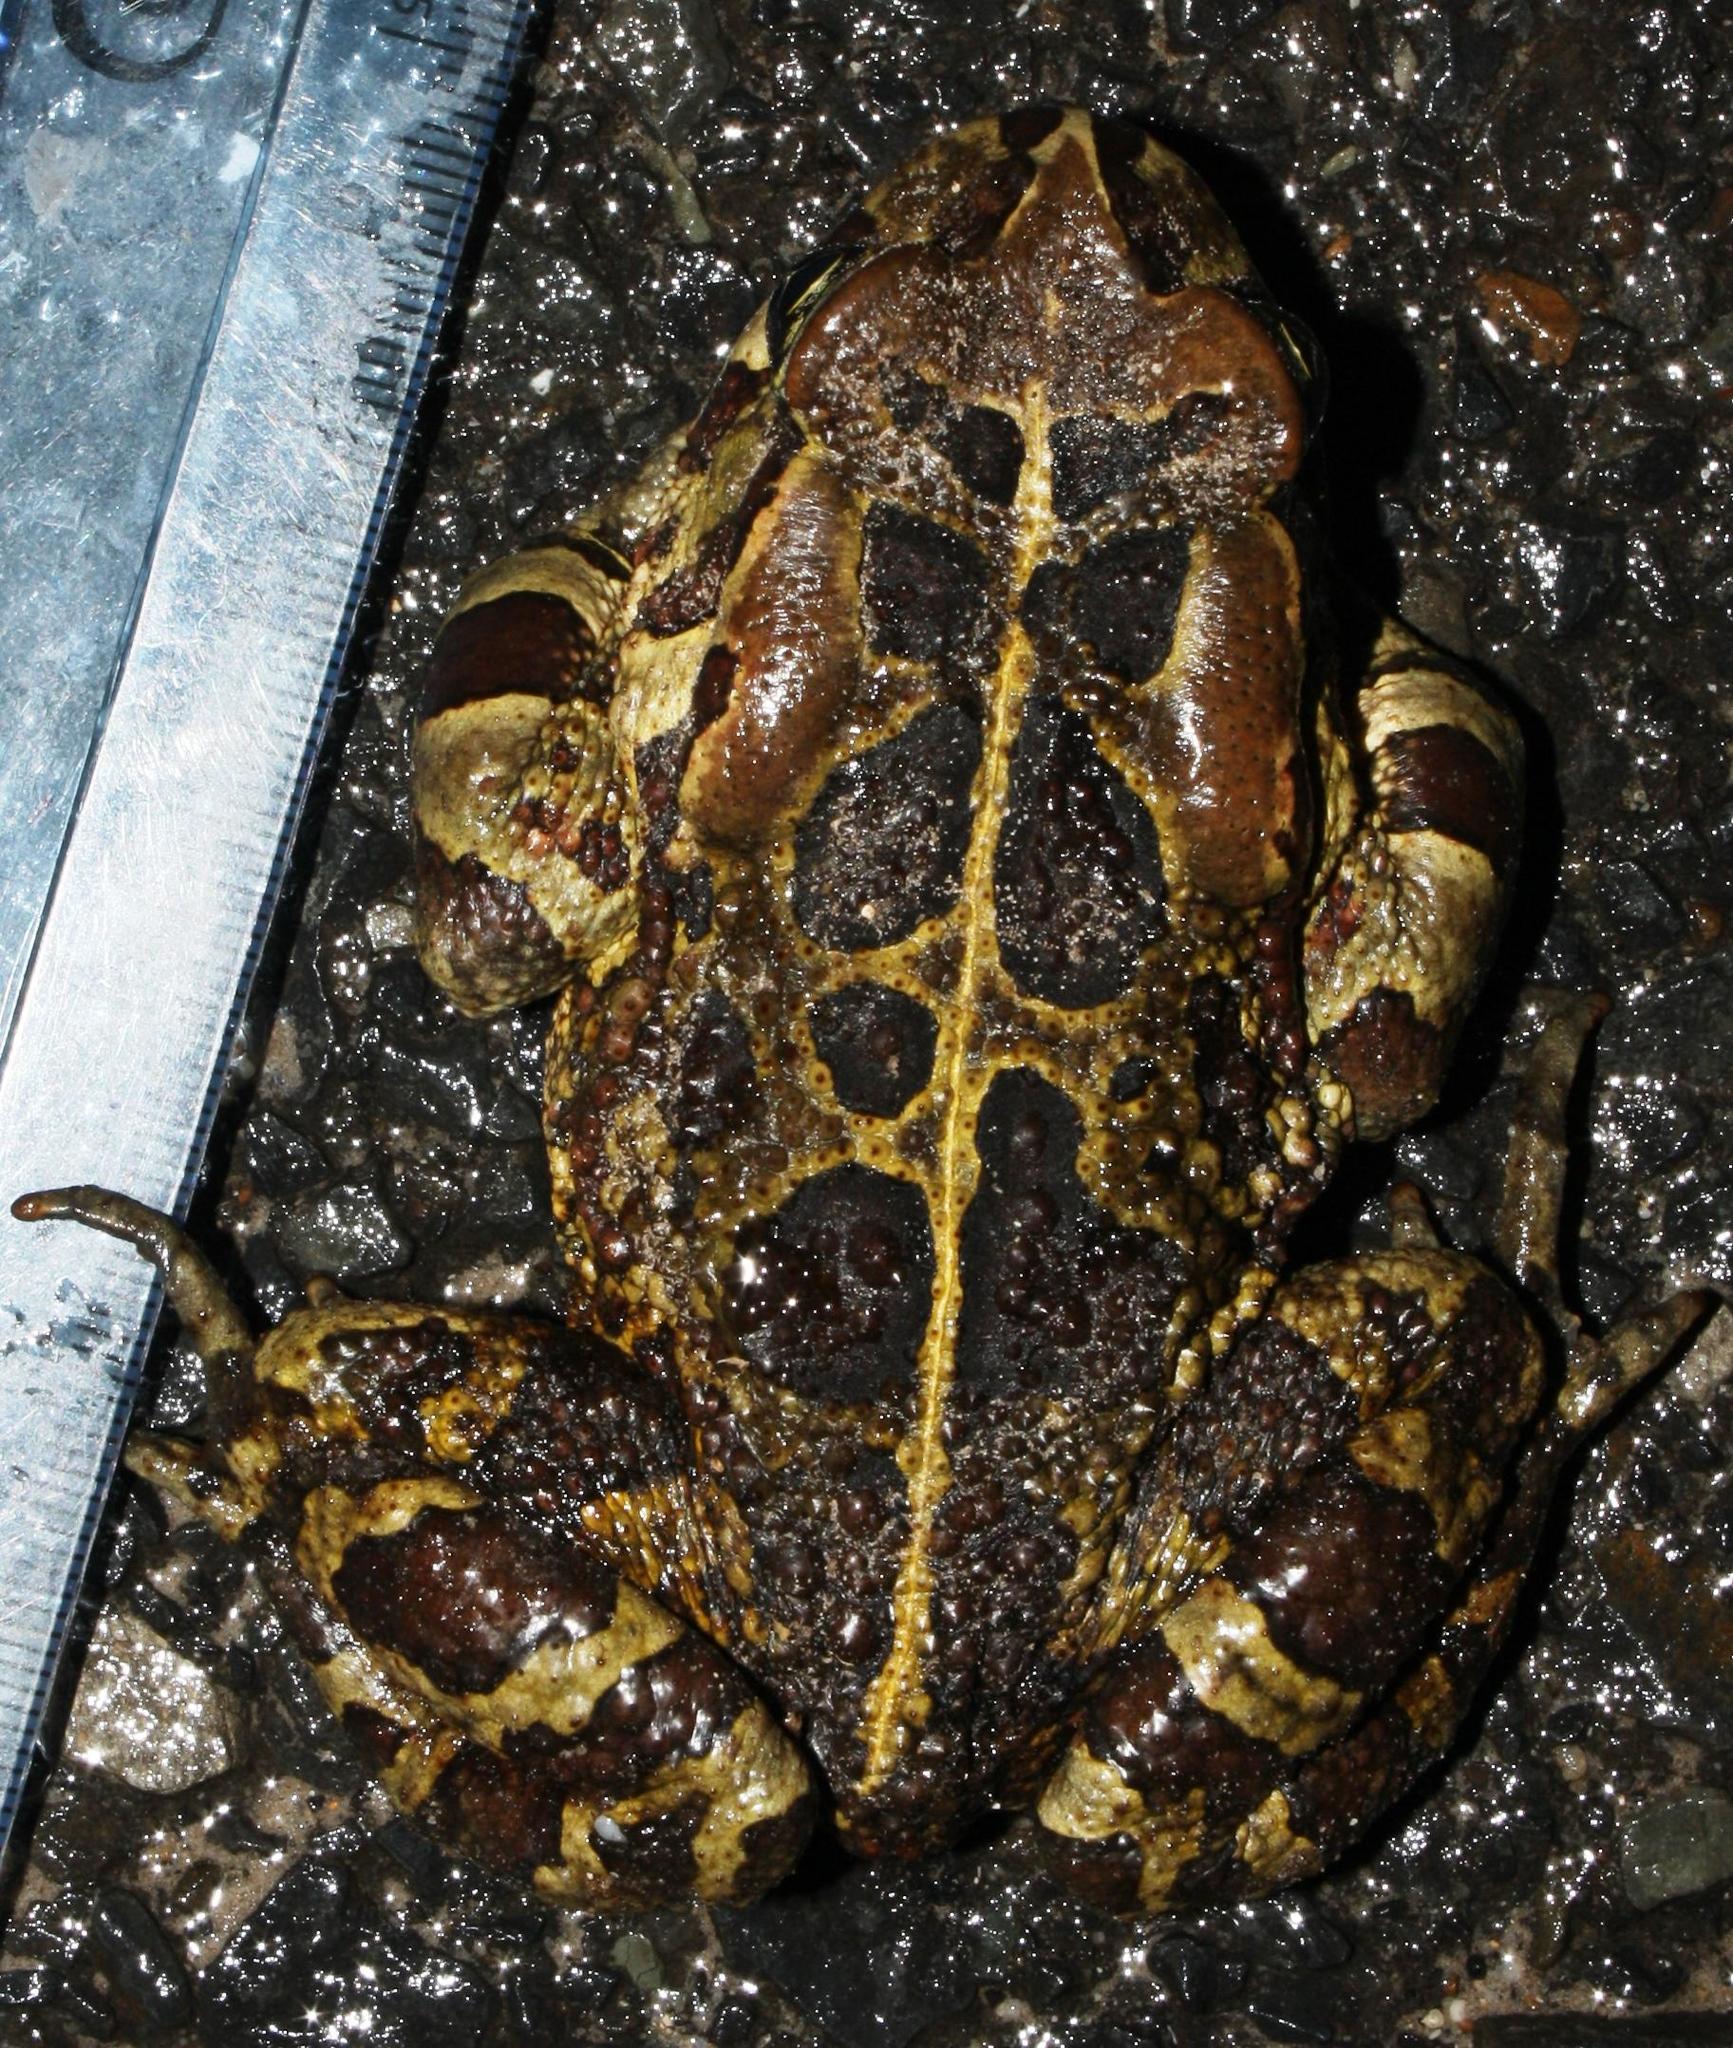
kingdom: Animalia
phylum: Chordata
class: Amphibia
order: Anura
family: Bufonidae
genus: Sclerophrys
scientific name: Sclerophrys pantherina
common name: Panther toad
